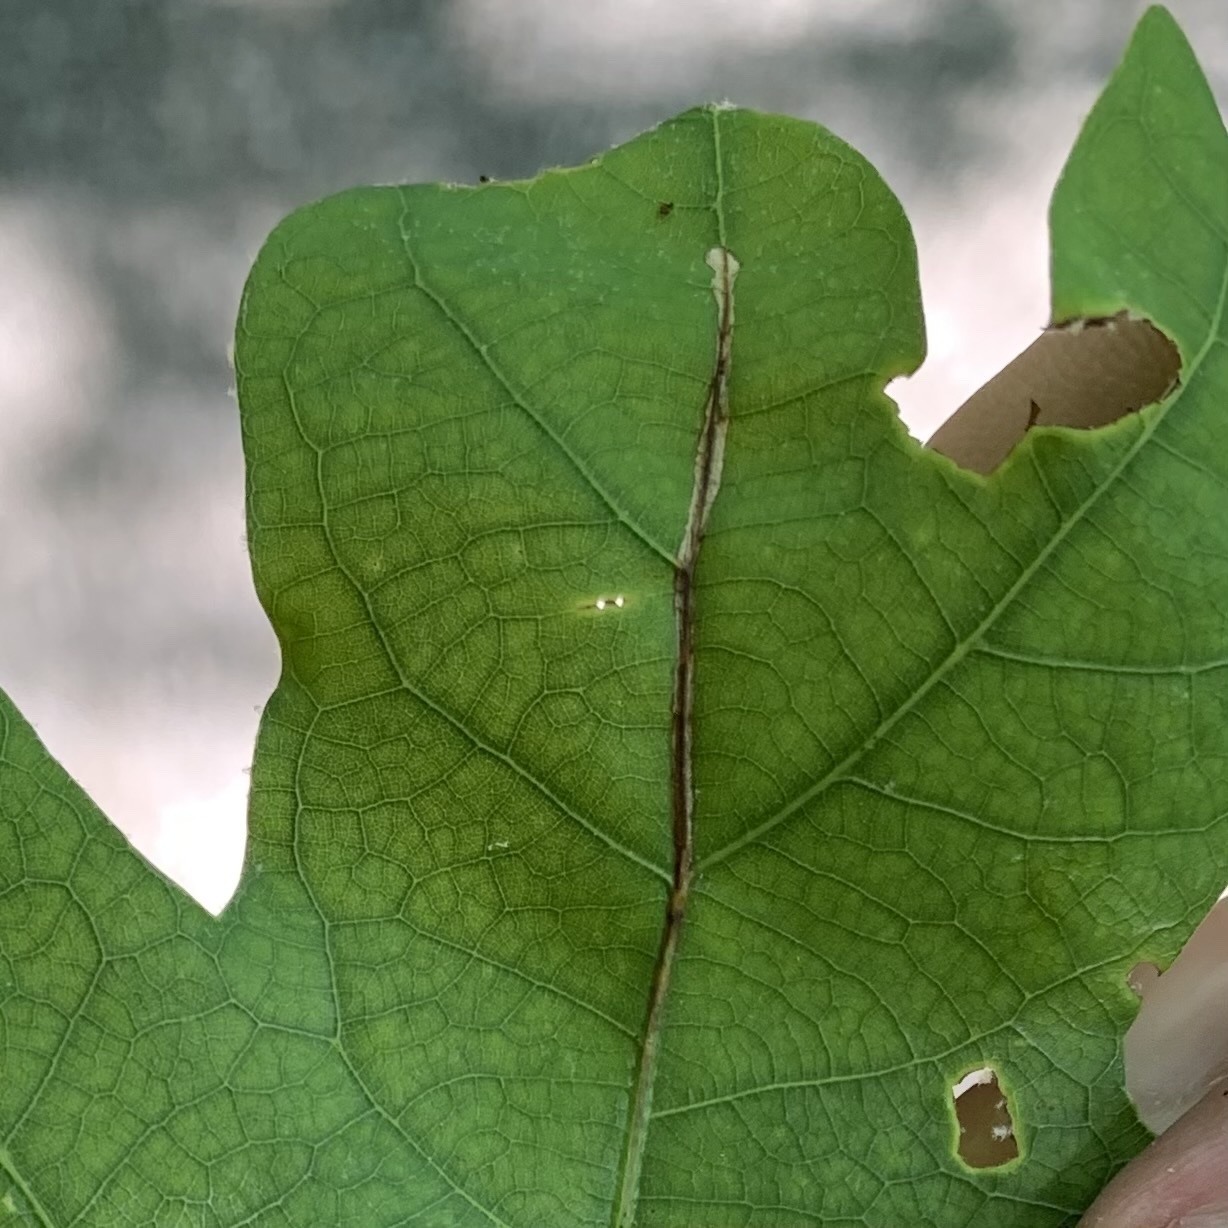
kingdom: Animalia
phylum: Arthropoda
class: Insecta
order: Lepidoptera
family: Gracillariidae
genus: Neurobathra
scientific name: Neurobathra strigifinitella
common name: Finite-channeled leafminer moth
